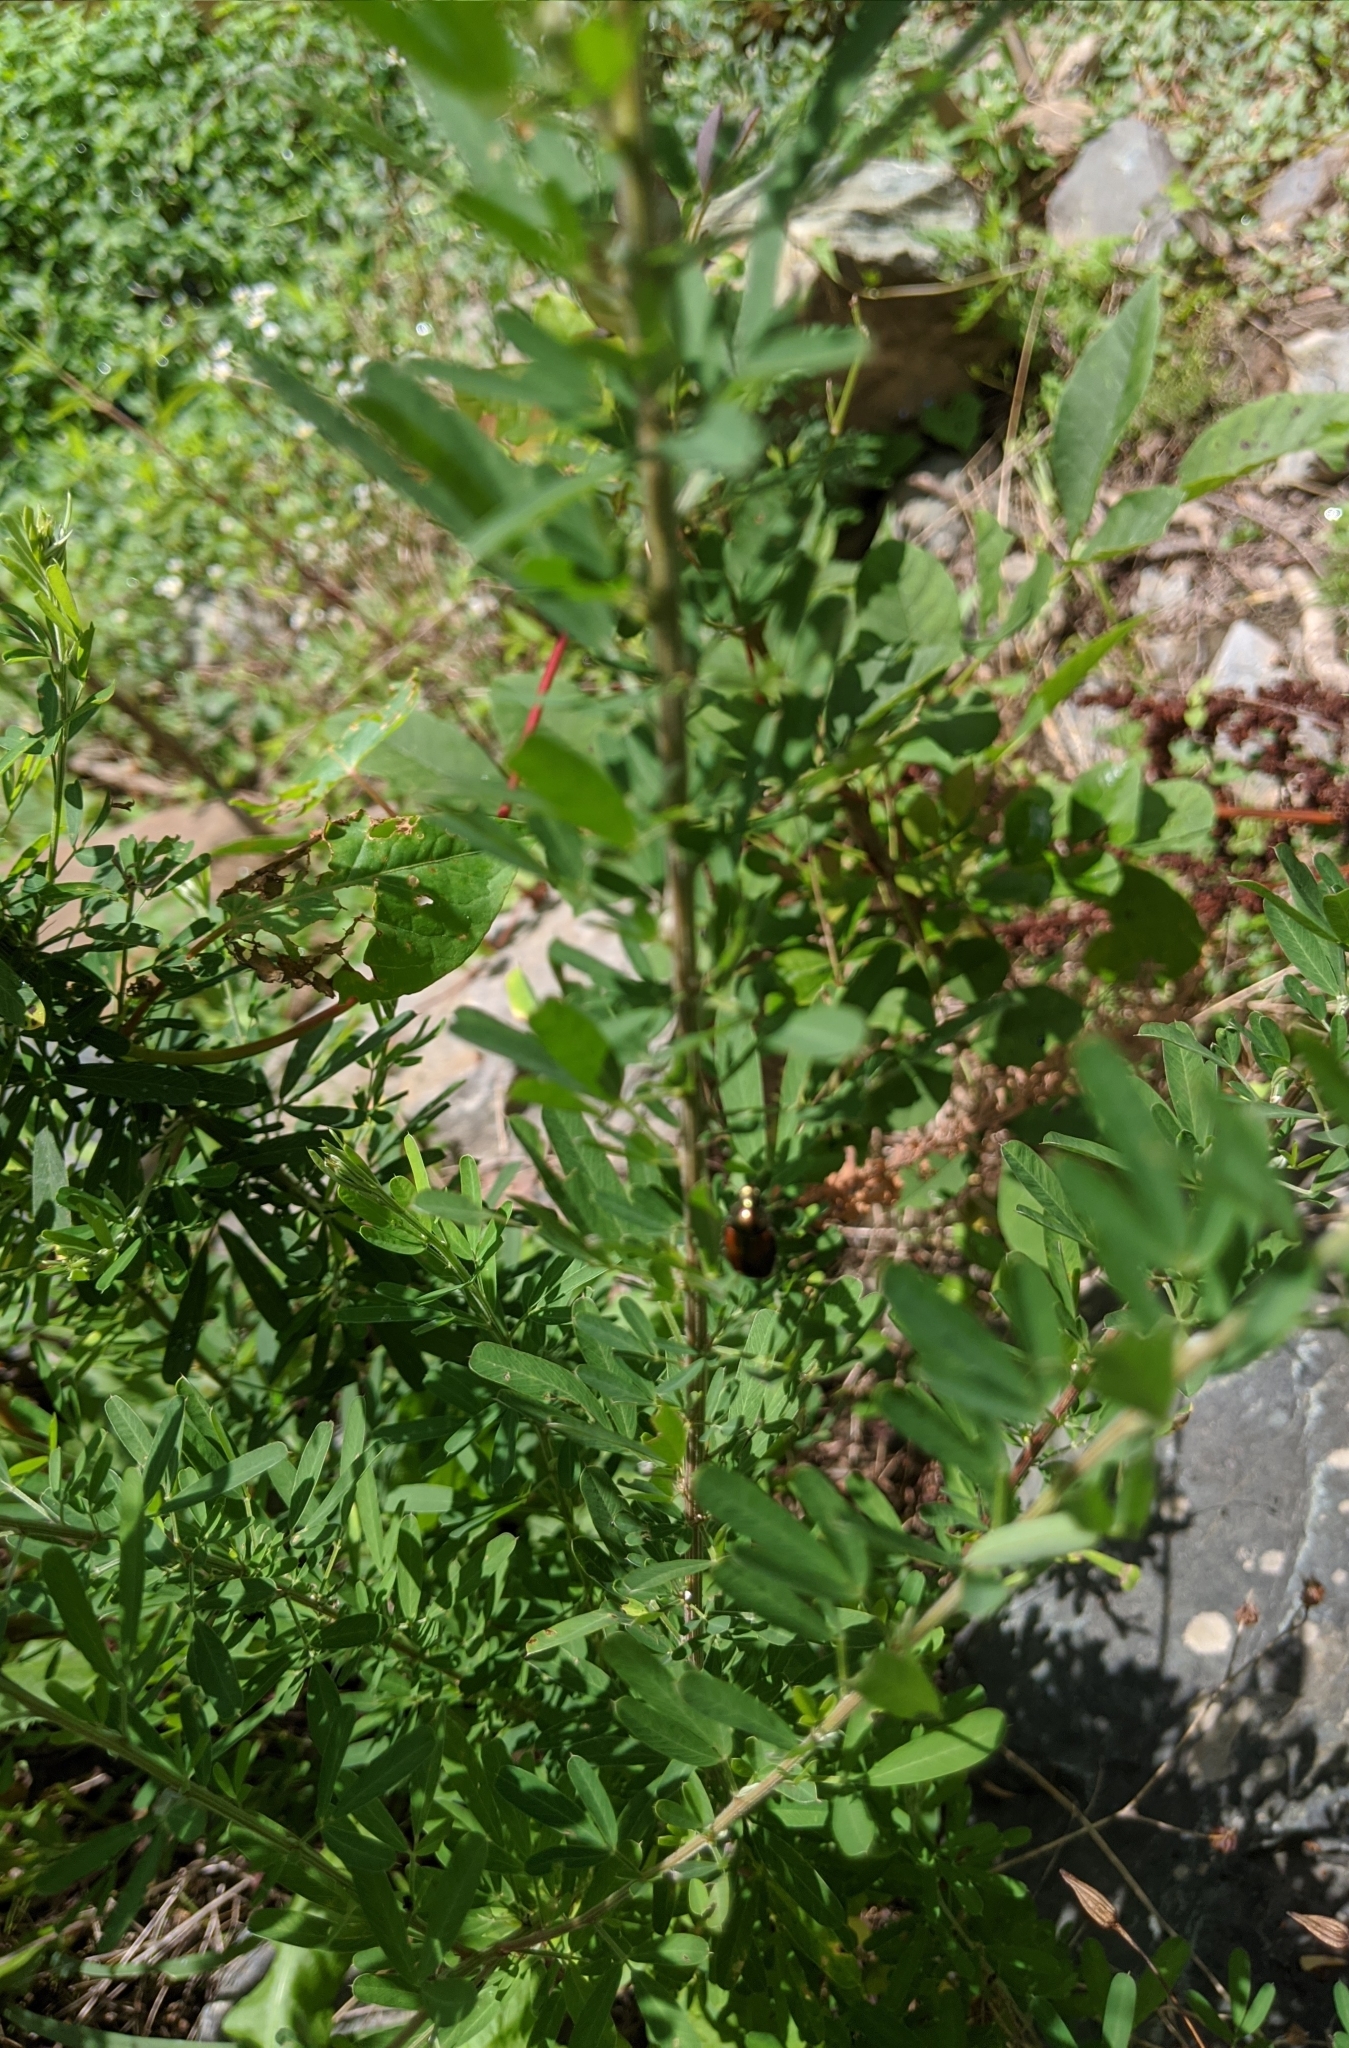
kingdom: Plantae
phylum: Tracheophyta
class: Magnoliopsida
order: Fabales
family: Fabaceae
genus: Lespedeza
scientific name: Lespedeza cuneata
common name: Chinese bush-clover
